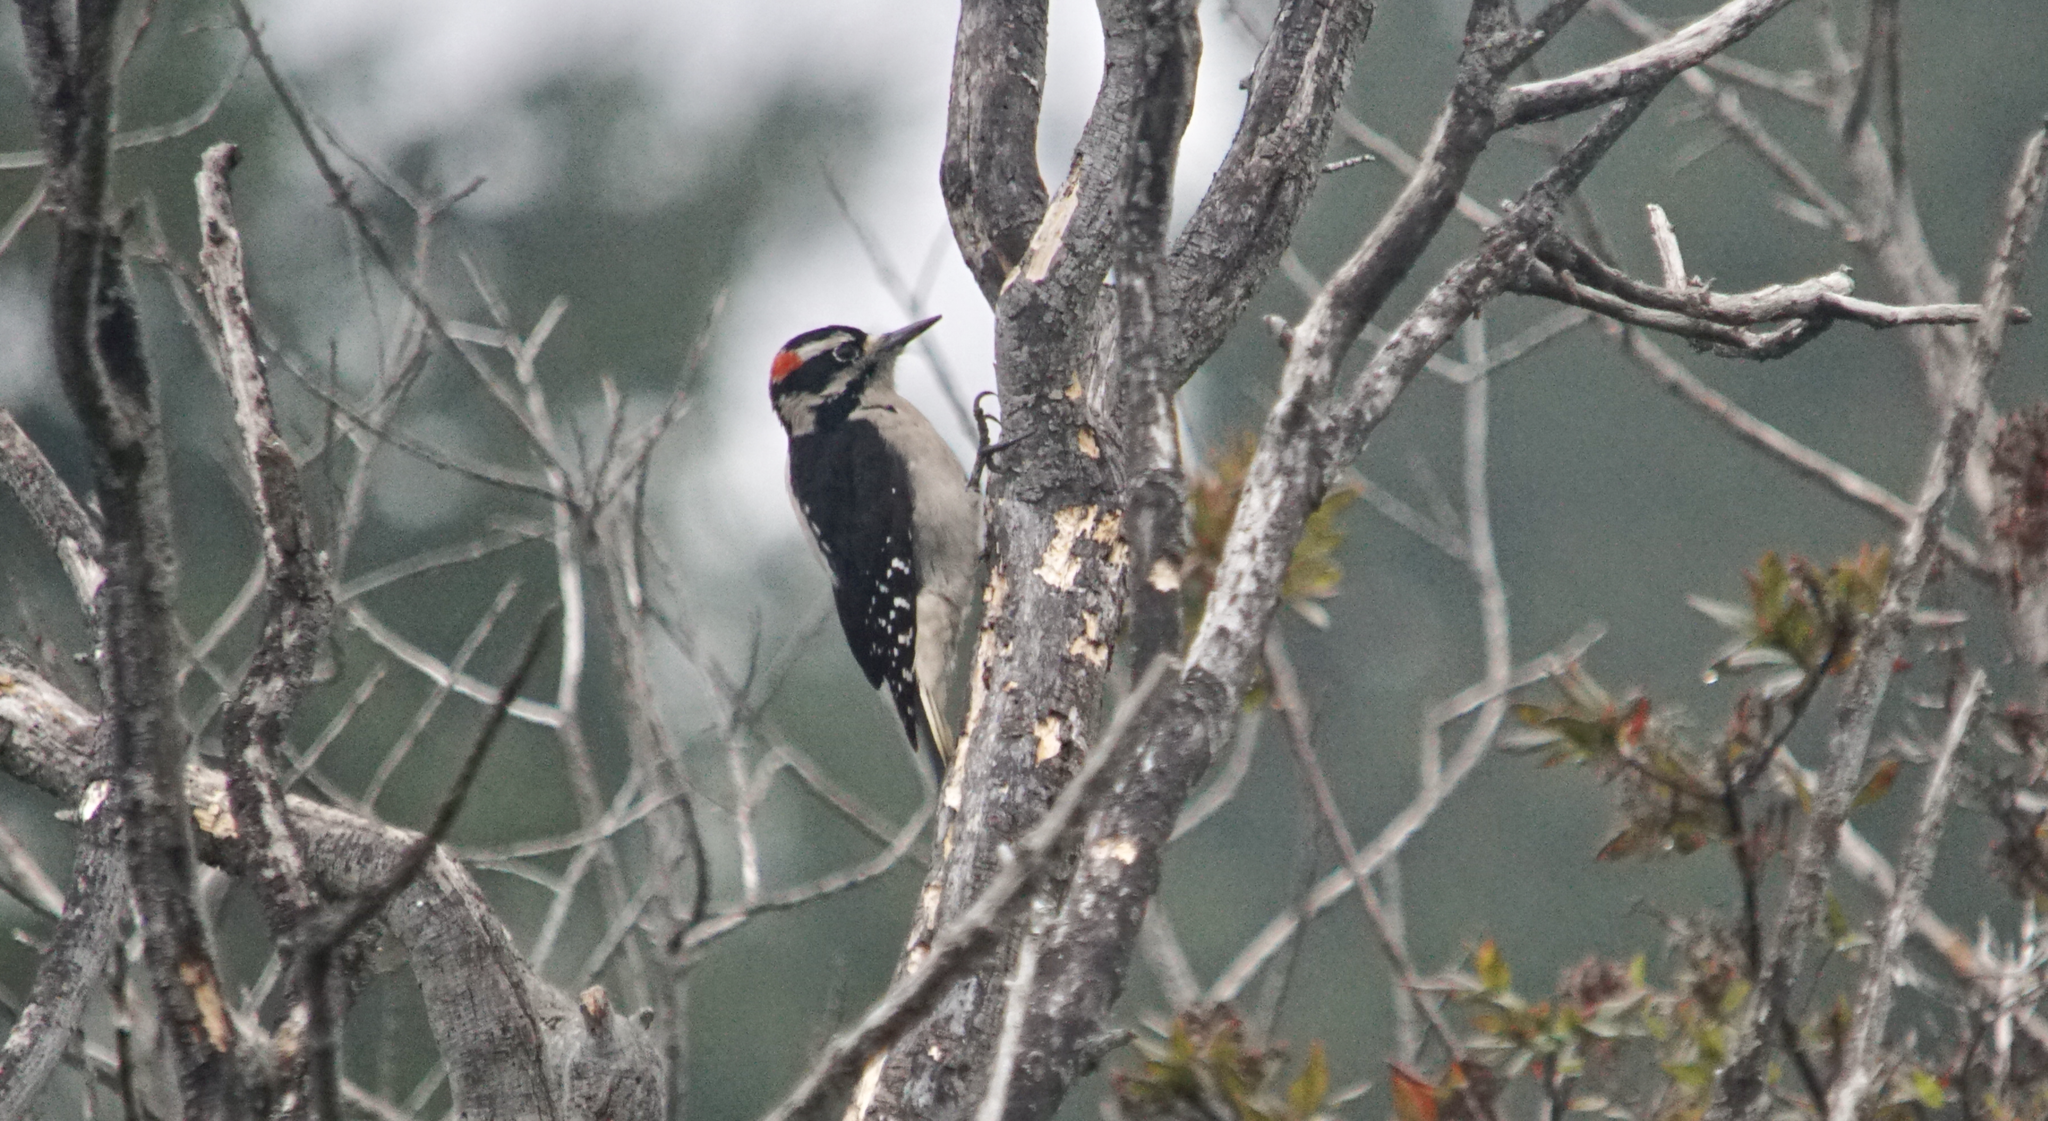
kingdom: Animalia
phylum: Chordata
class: Aves
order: Piciformes
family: Picidae
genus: Leuconotopicus
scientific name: Leuconotopicus villosus
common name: Hairy woodpecker
